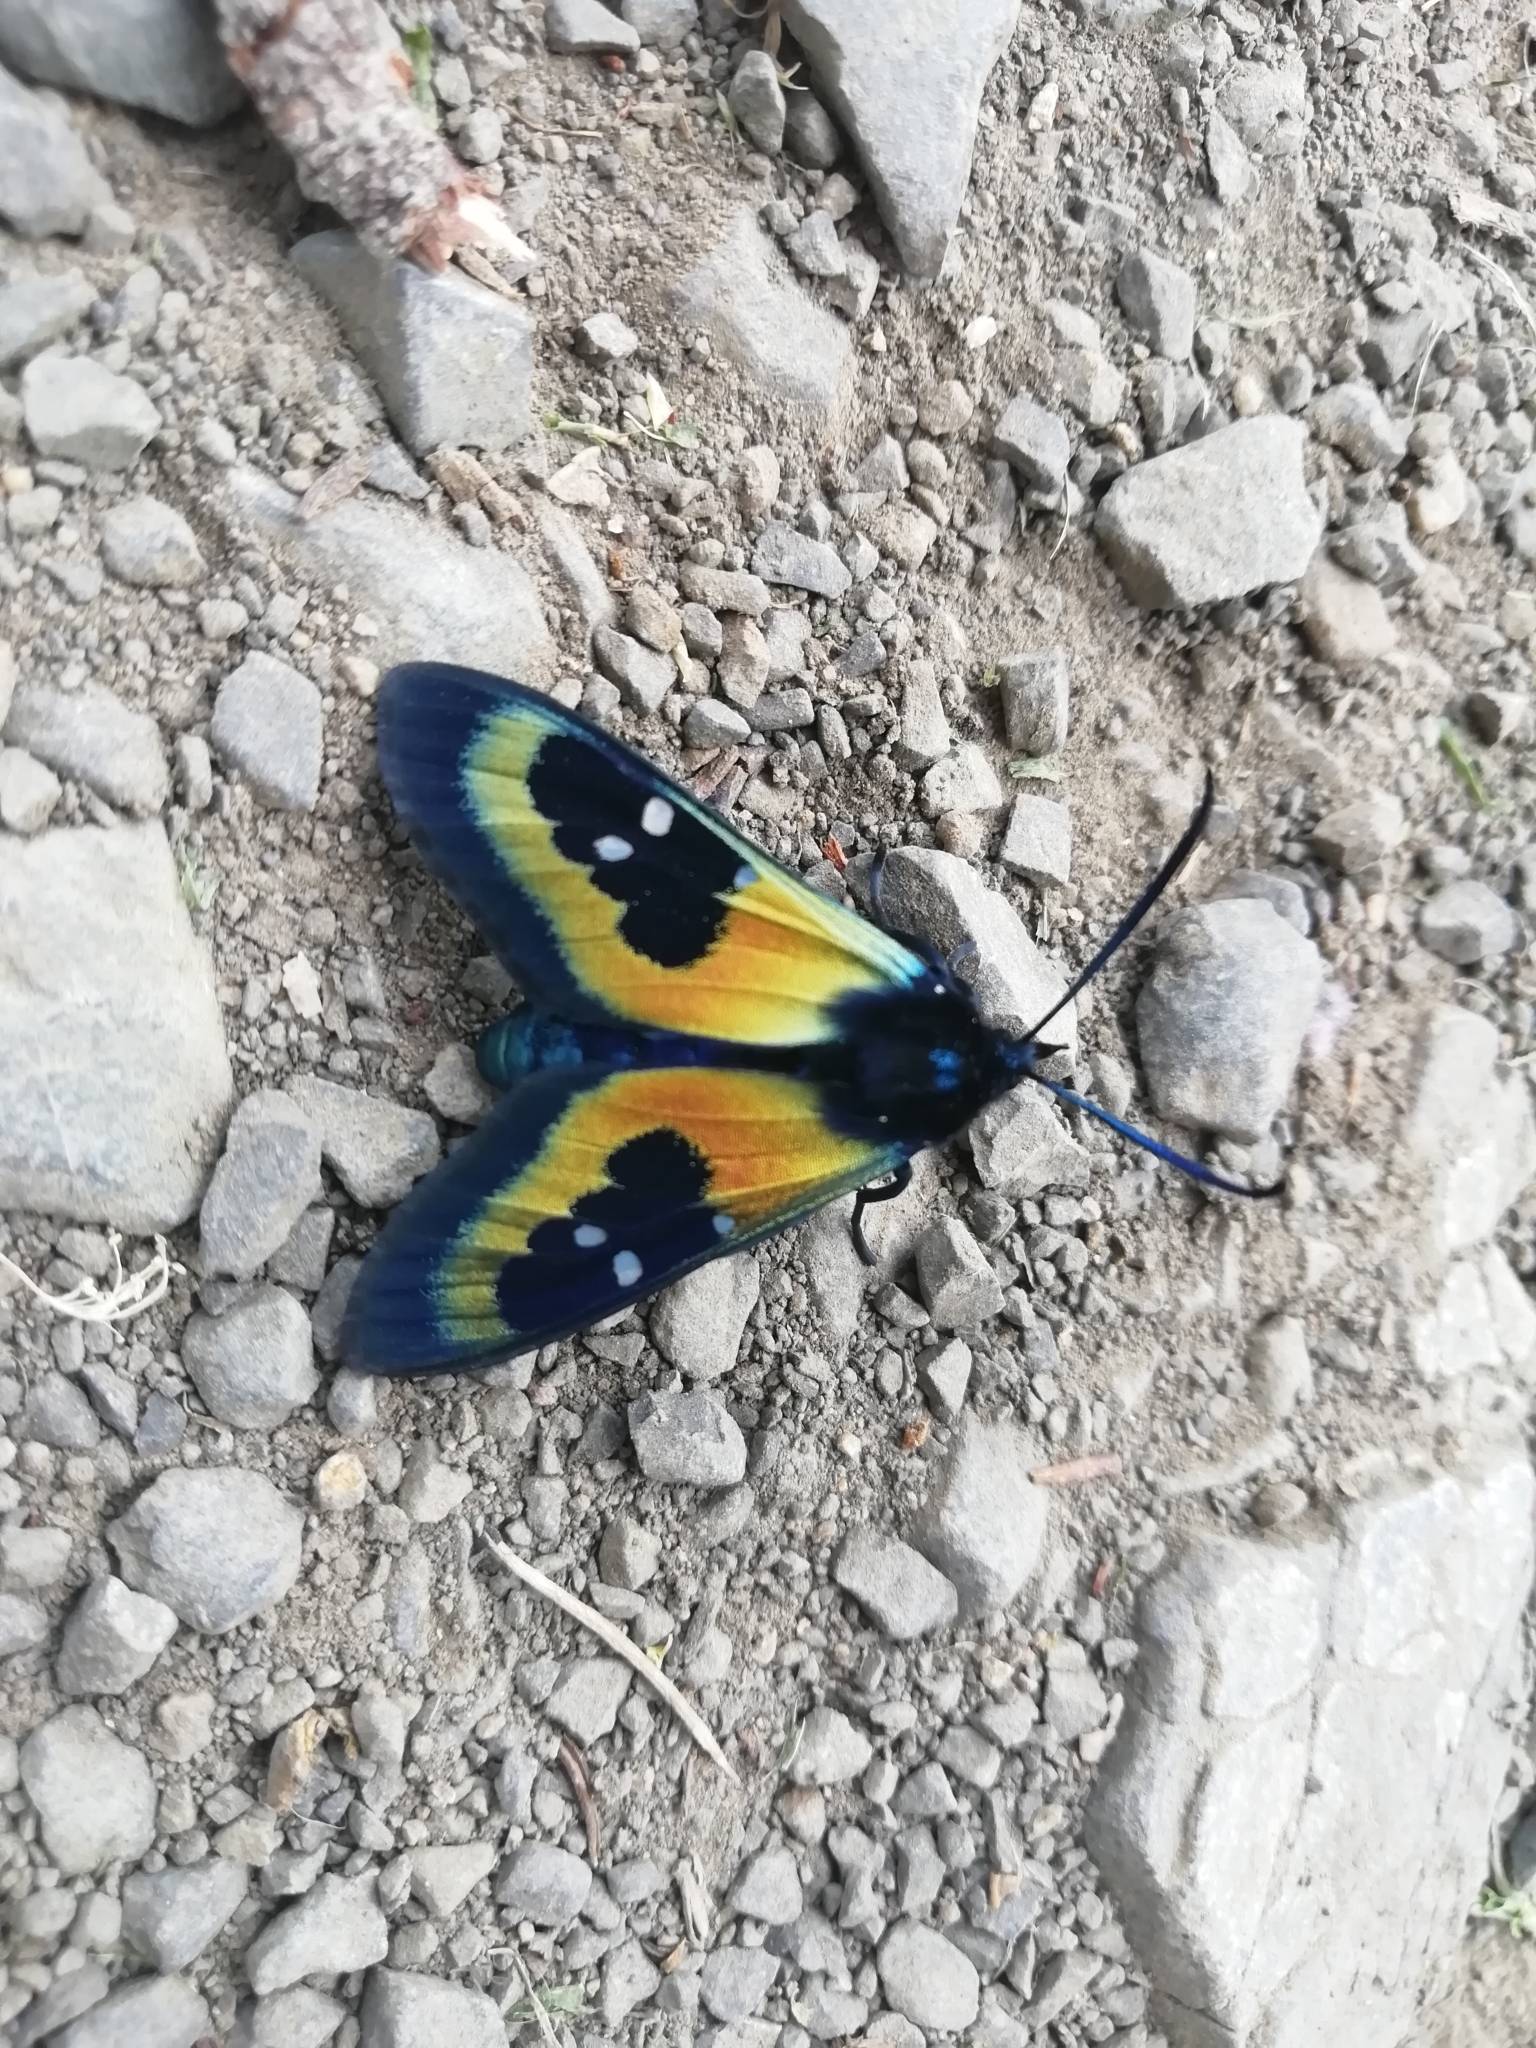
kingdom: Animalia
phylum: Arthropoda
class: Insecta
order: Lepidoptera
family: Erebidae
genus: Chrysocale
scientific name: Chrysocale splendens
